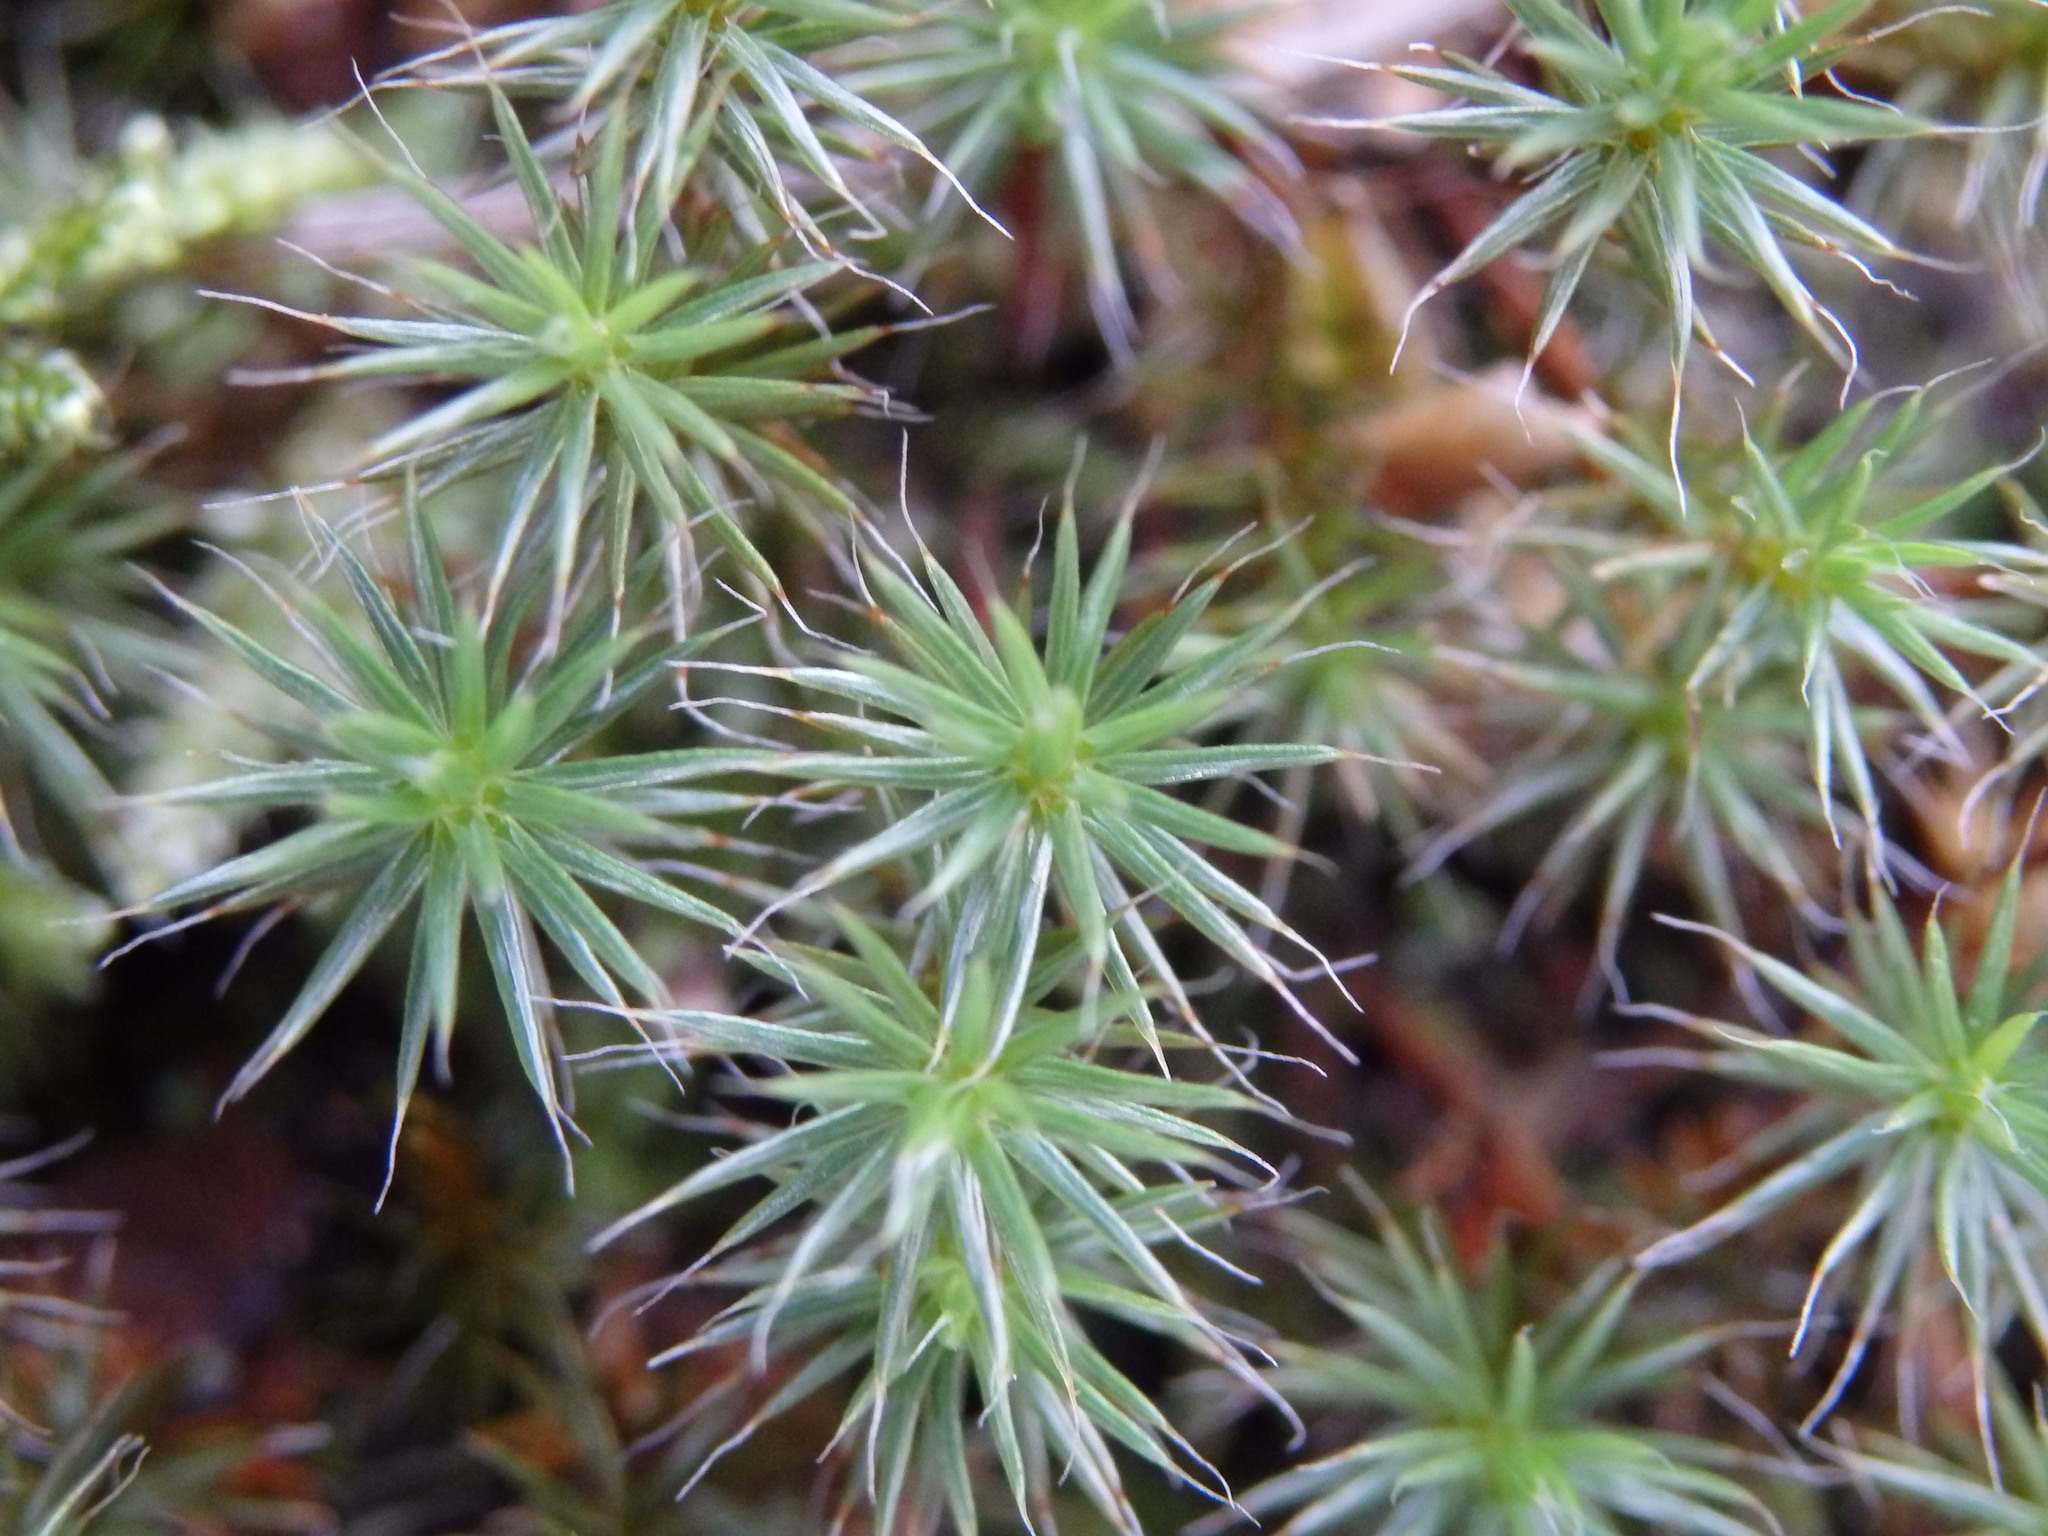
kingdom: Plantae
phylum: Bryophyta
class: Polytrichopsida
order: Polytrichales
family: Polytrichaceae
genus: Polytrichum
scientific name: Polytrichum piliferum
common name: Bristly haircap
